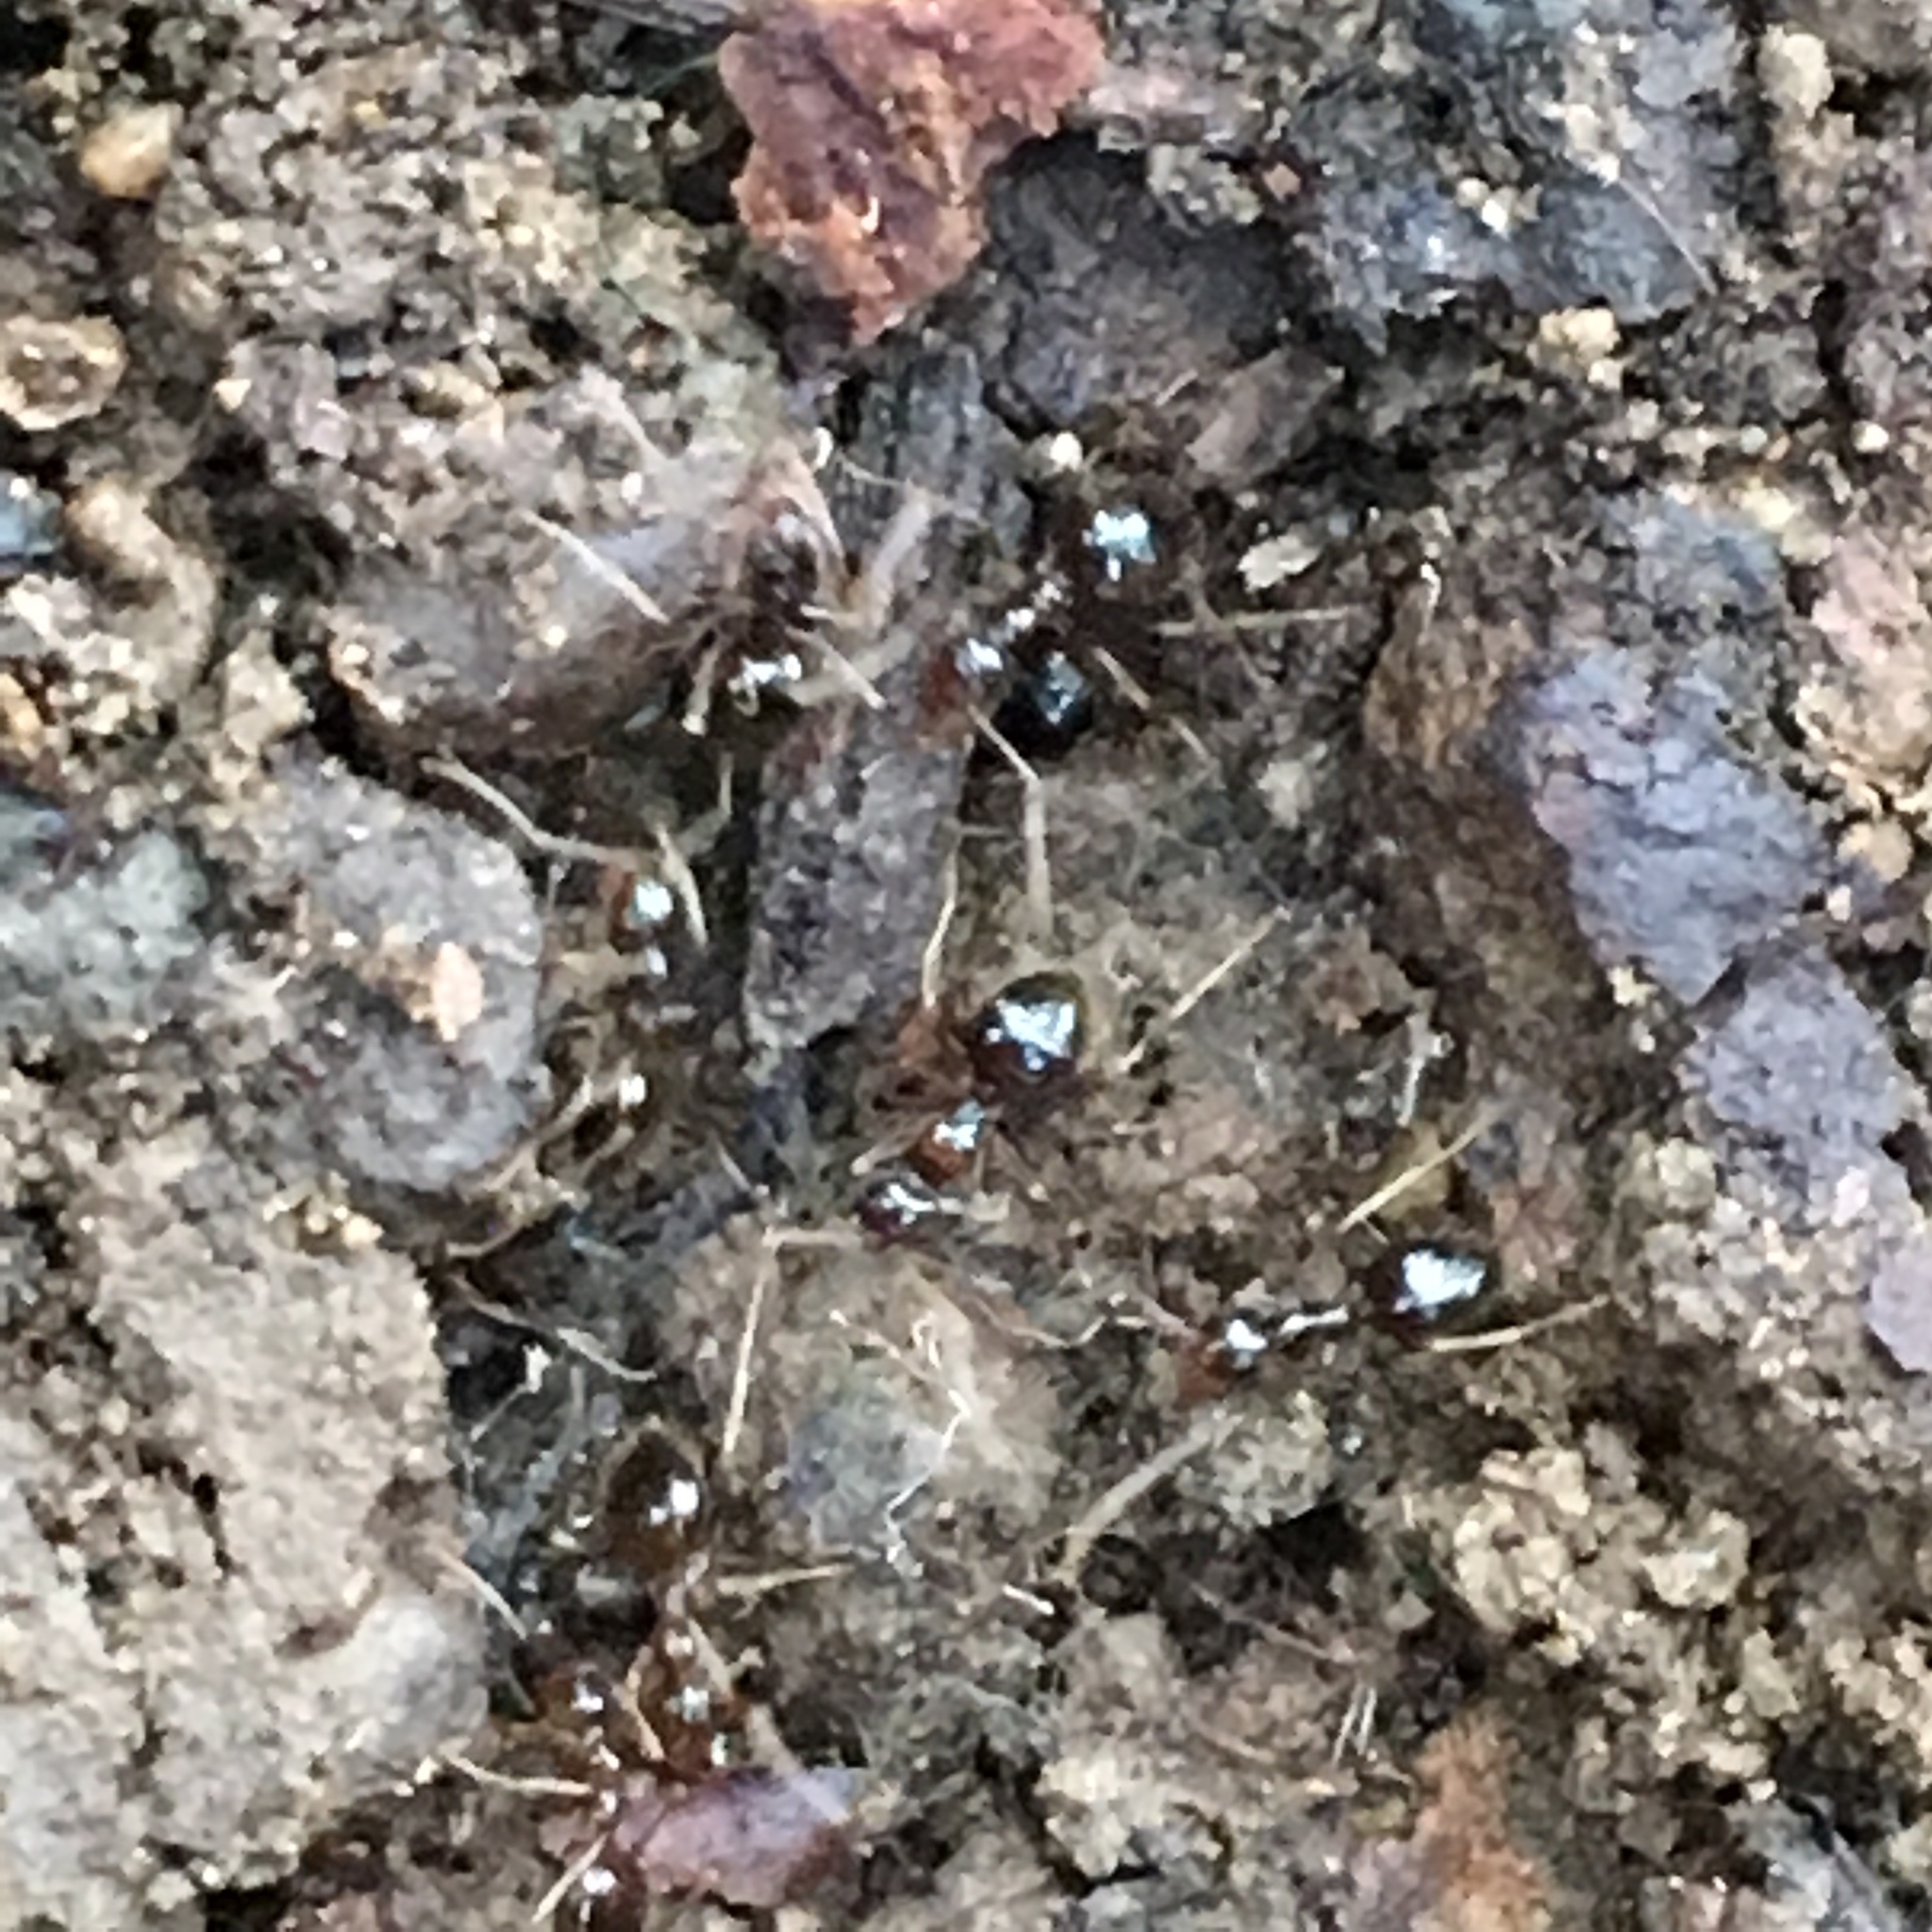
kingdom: Animalia
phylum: Arthropoda
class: Insecta
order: Hymenoptera
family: Formicidae
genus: Prenolepis
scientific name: Prenolepis imparis
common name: Small honey ant
